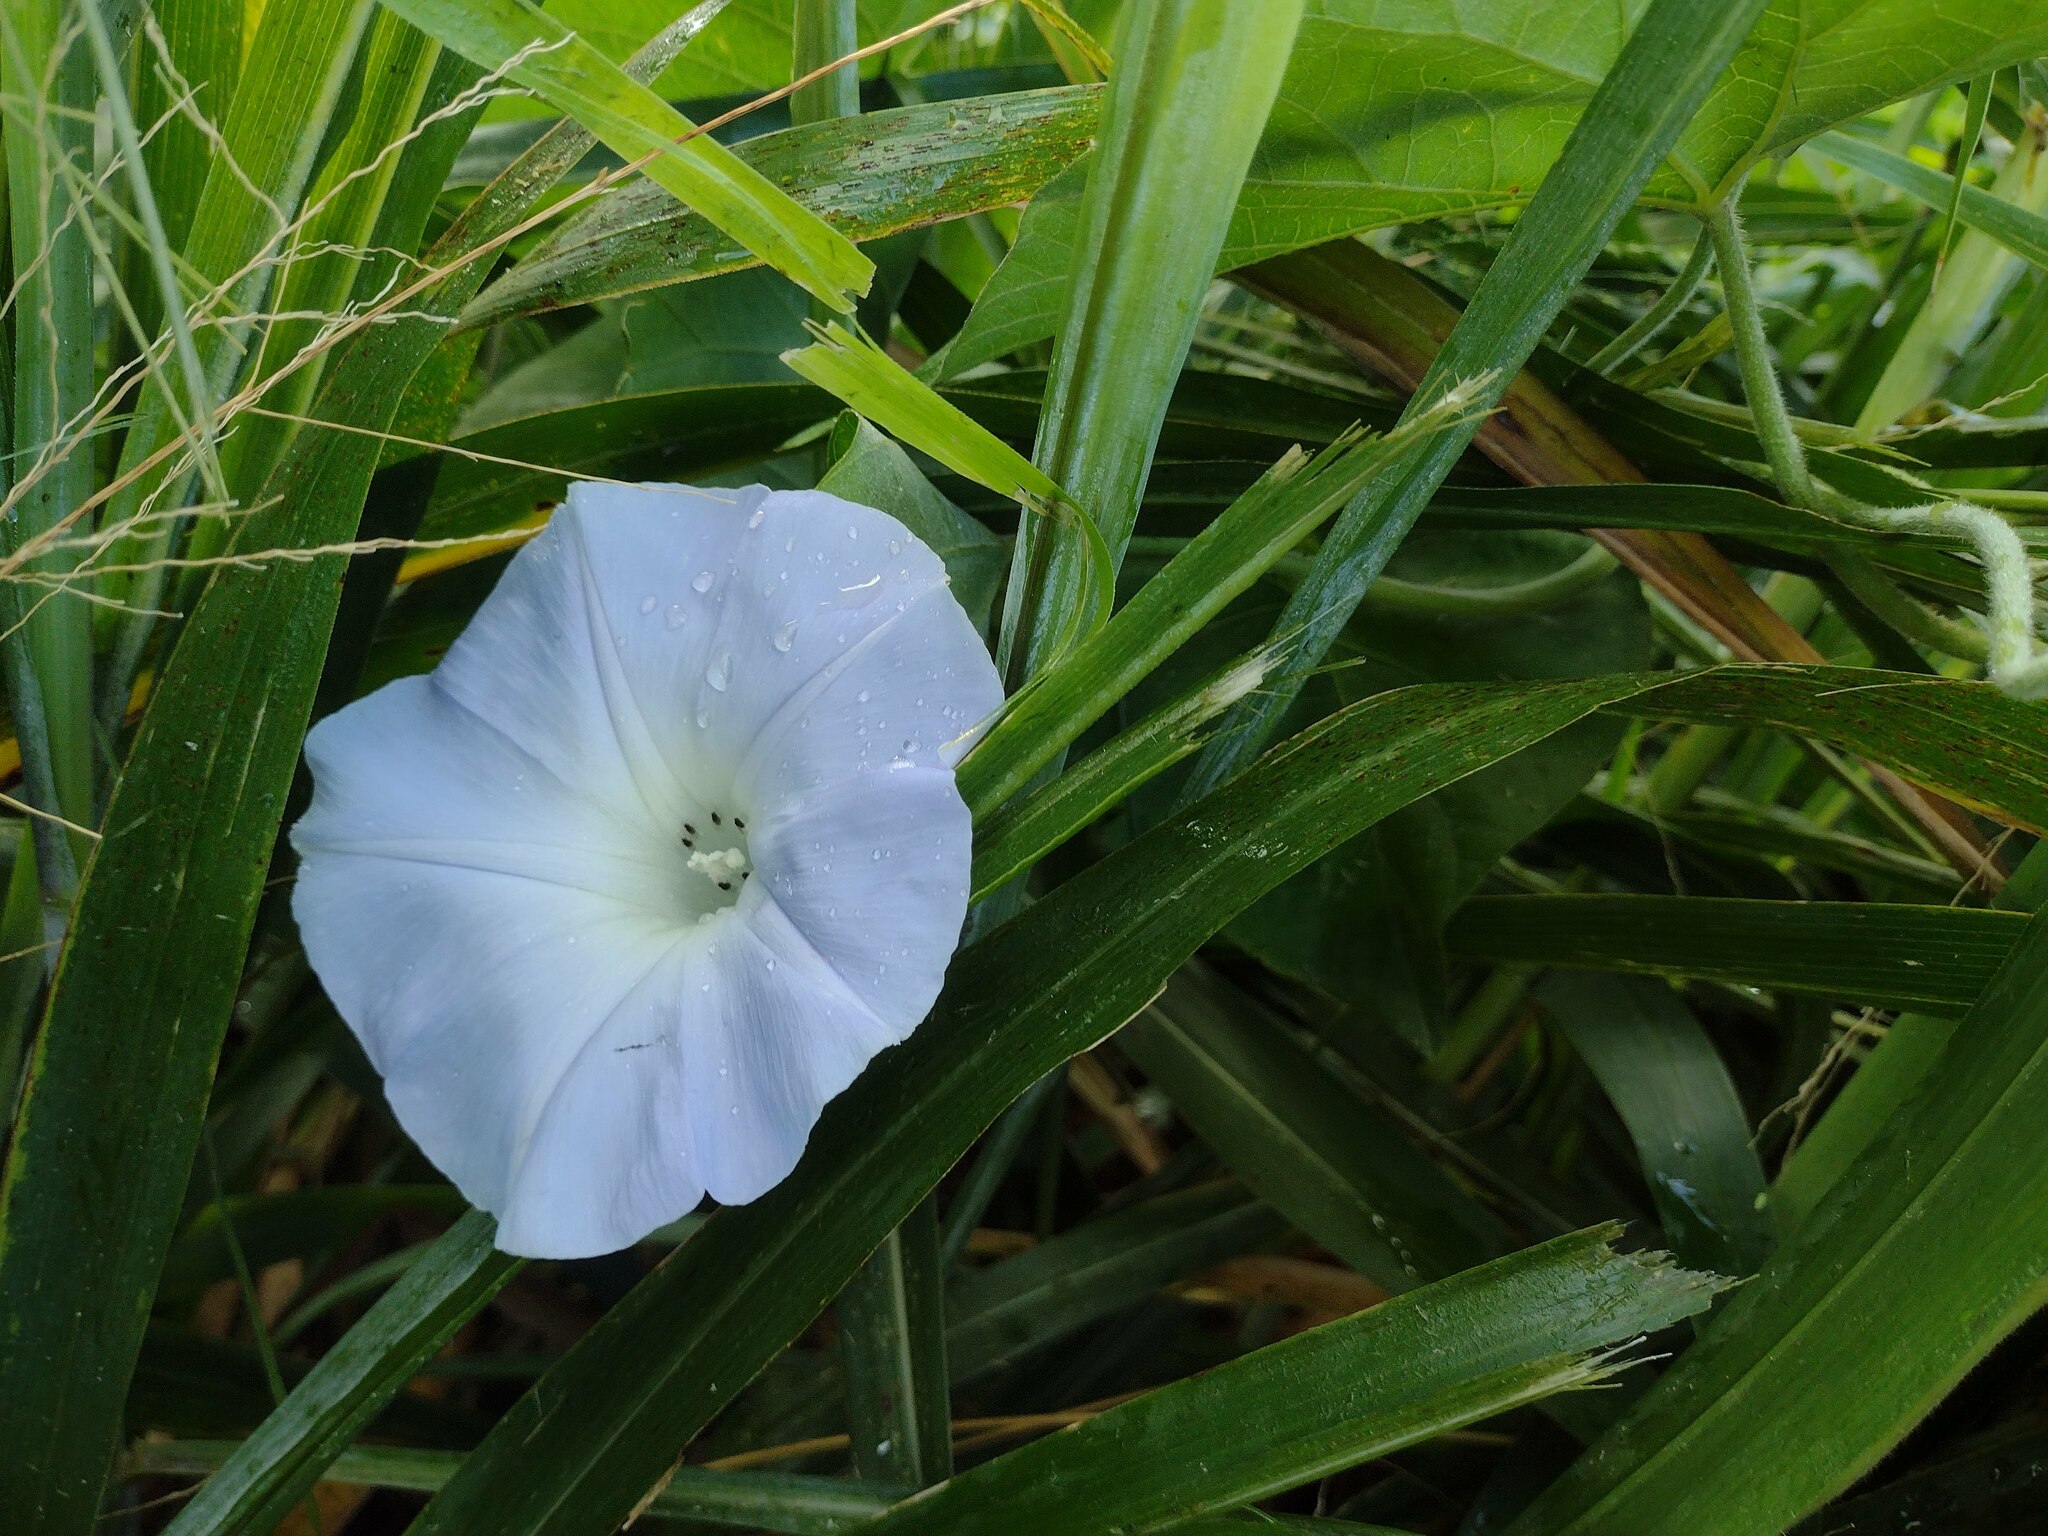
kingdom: Plantae
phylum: Tracheophyta
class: Magnoliopsida
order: Solanales
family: Convolvulaceae
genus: Ipomoea
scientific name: Ipomoea indica
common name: Blue dawnflower
